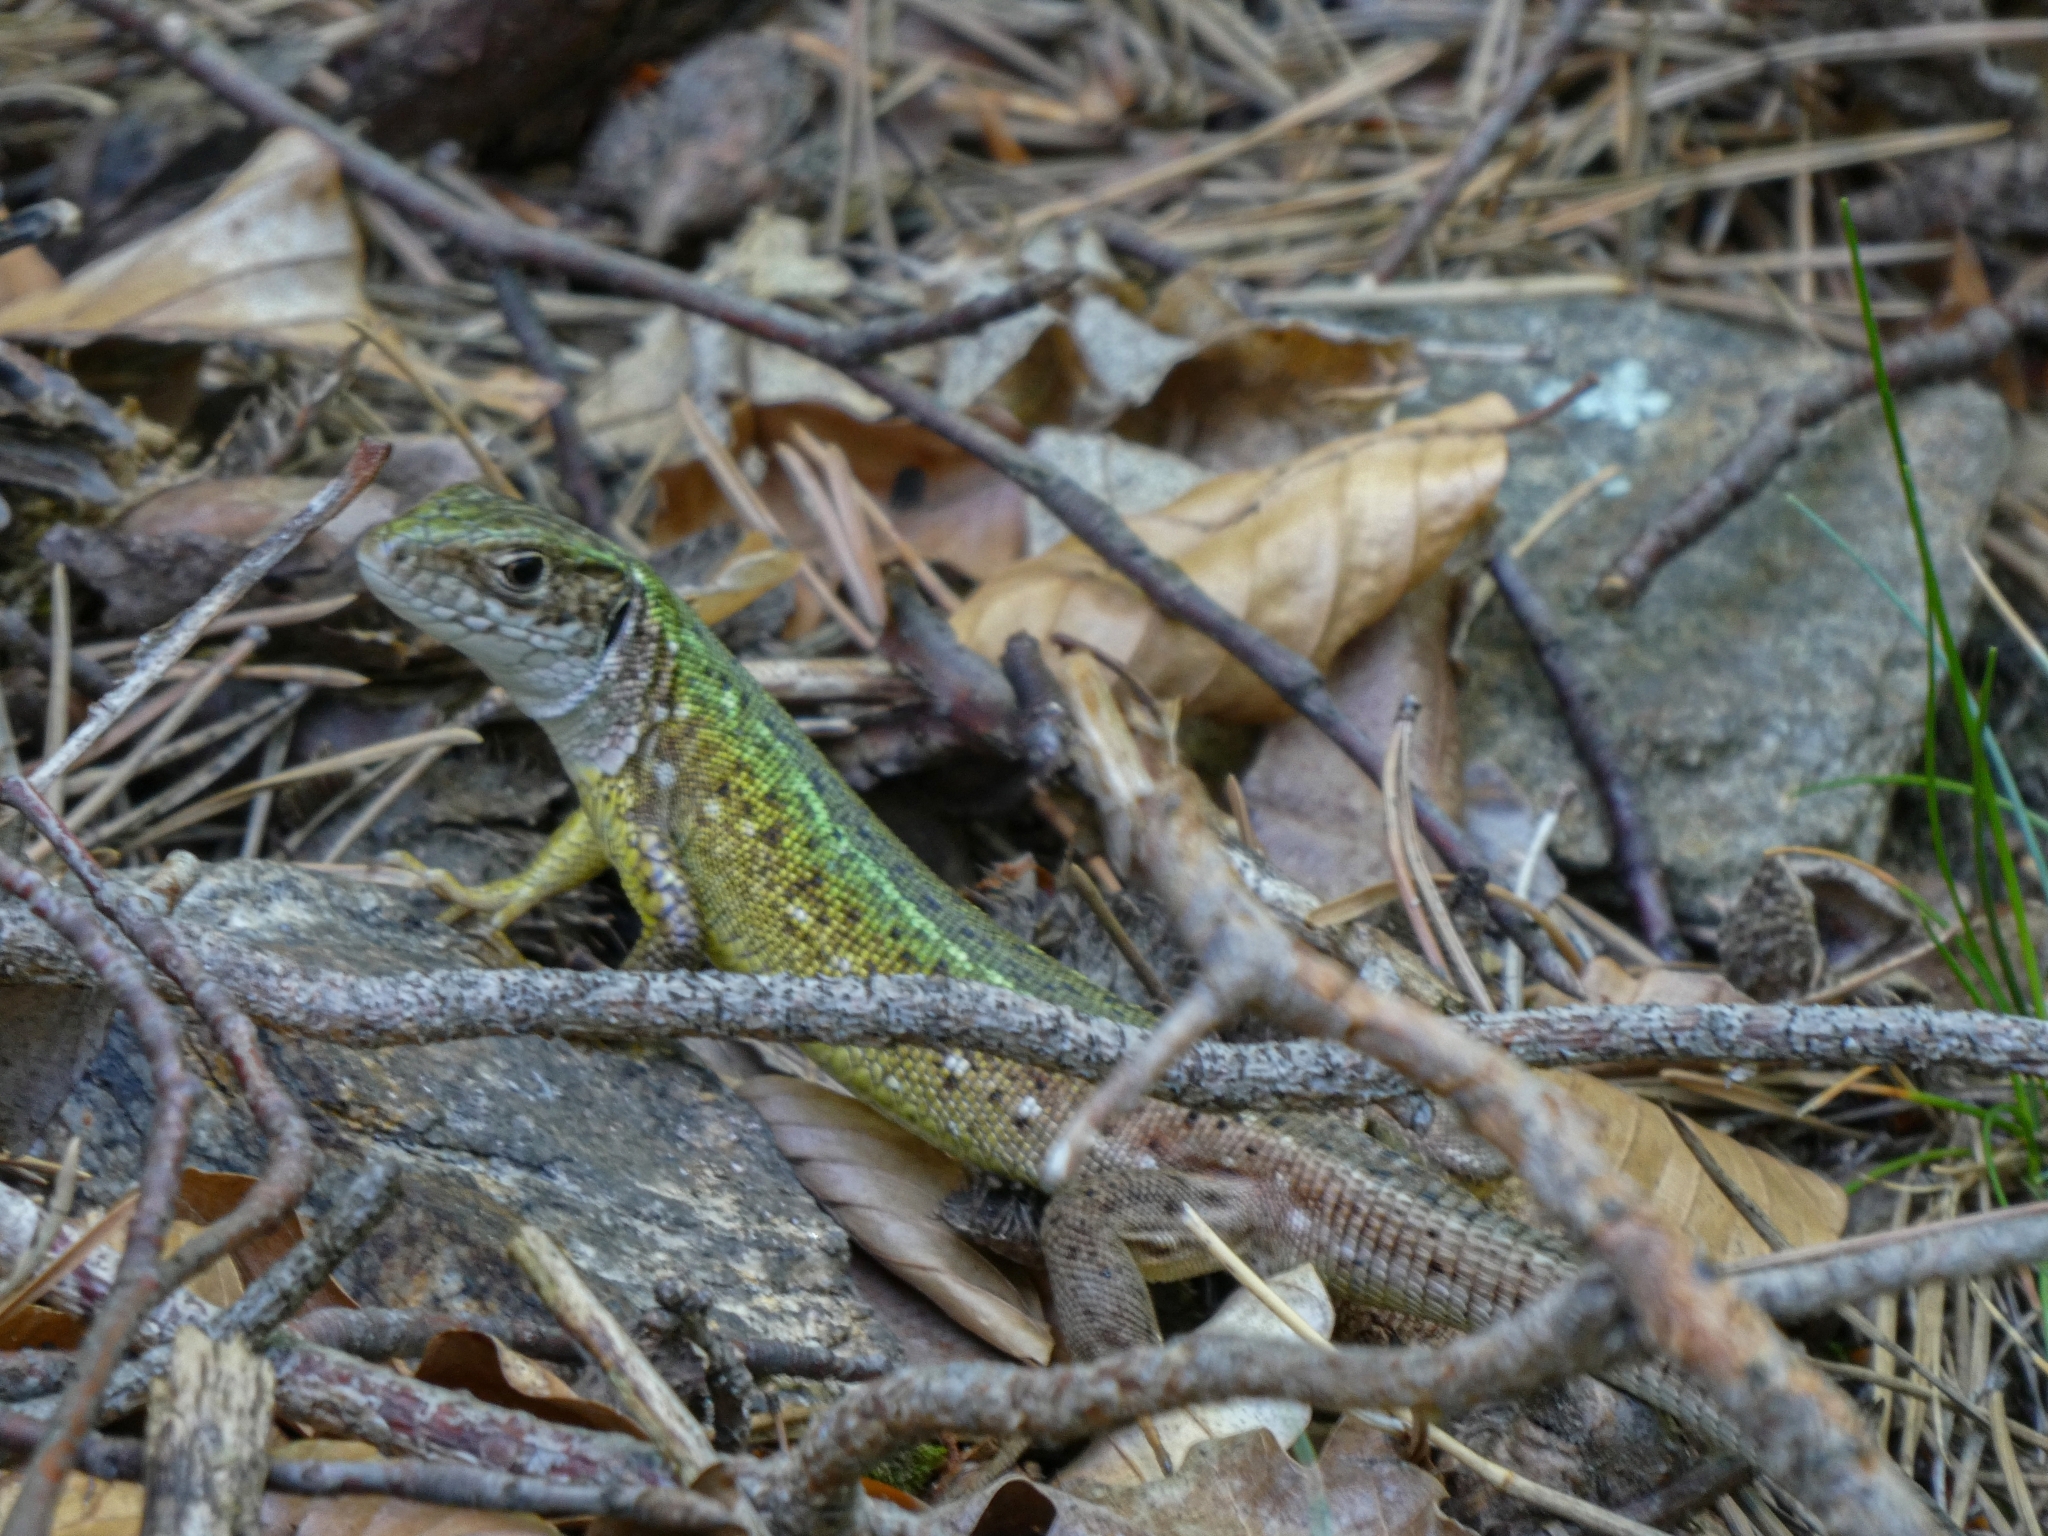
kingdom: Animalia
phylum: Chordata
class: Squamata
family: Lacertidae
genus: Lacerta
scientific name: Lacerta viridis
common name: European green lizard
